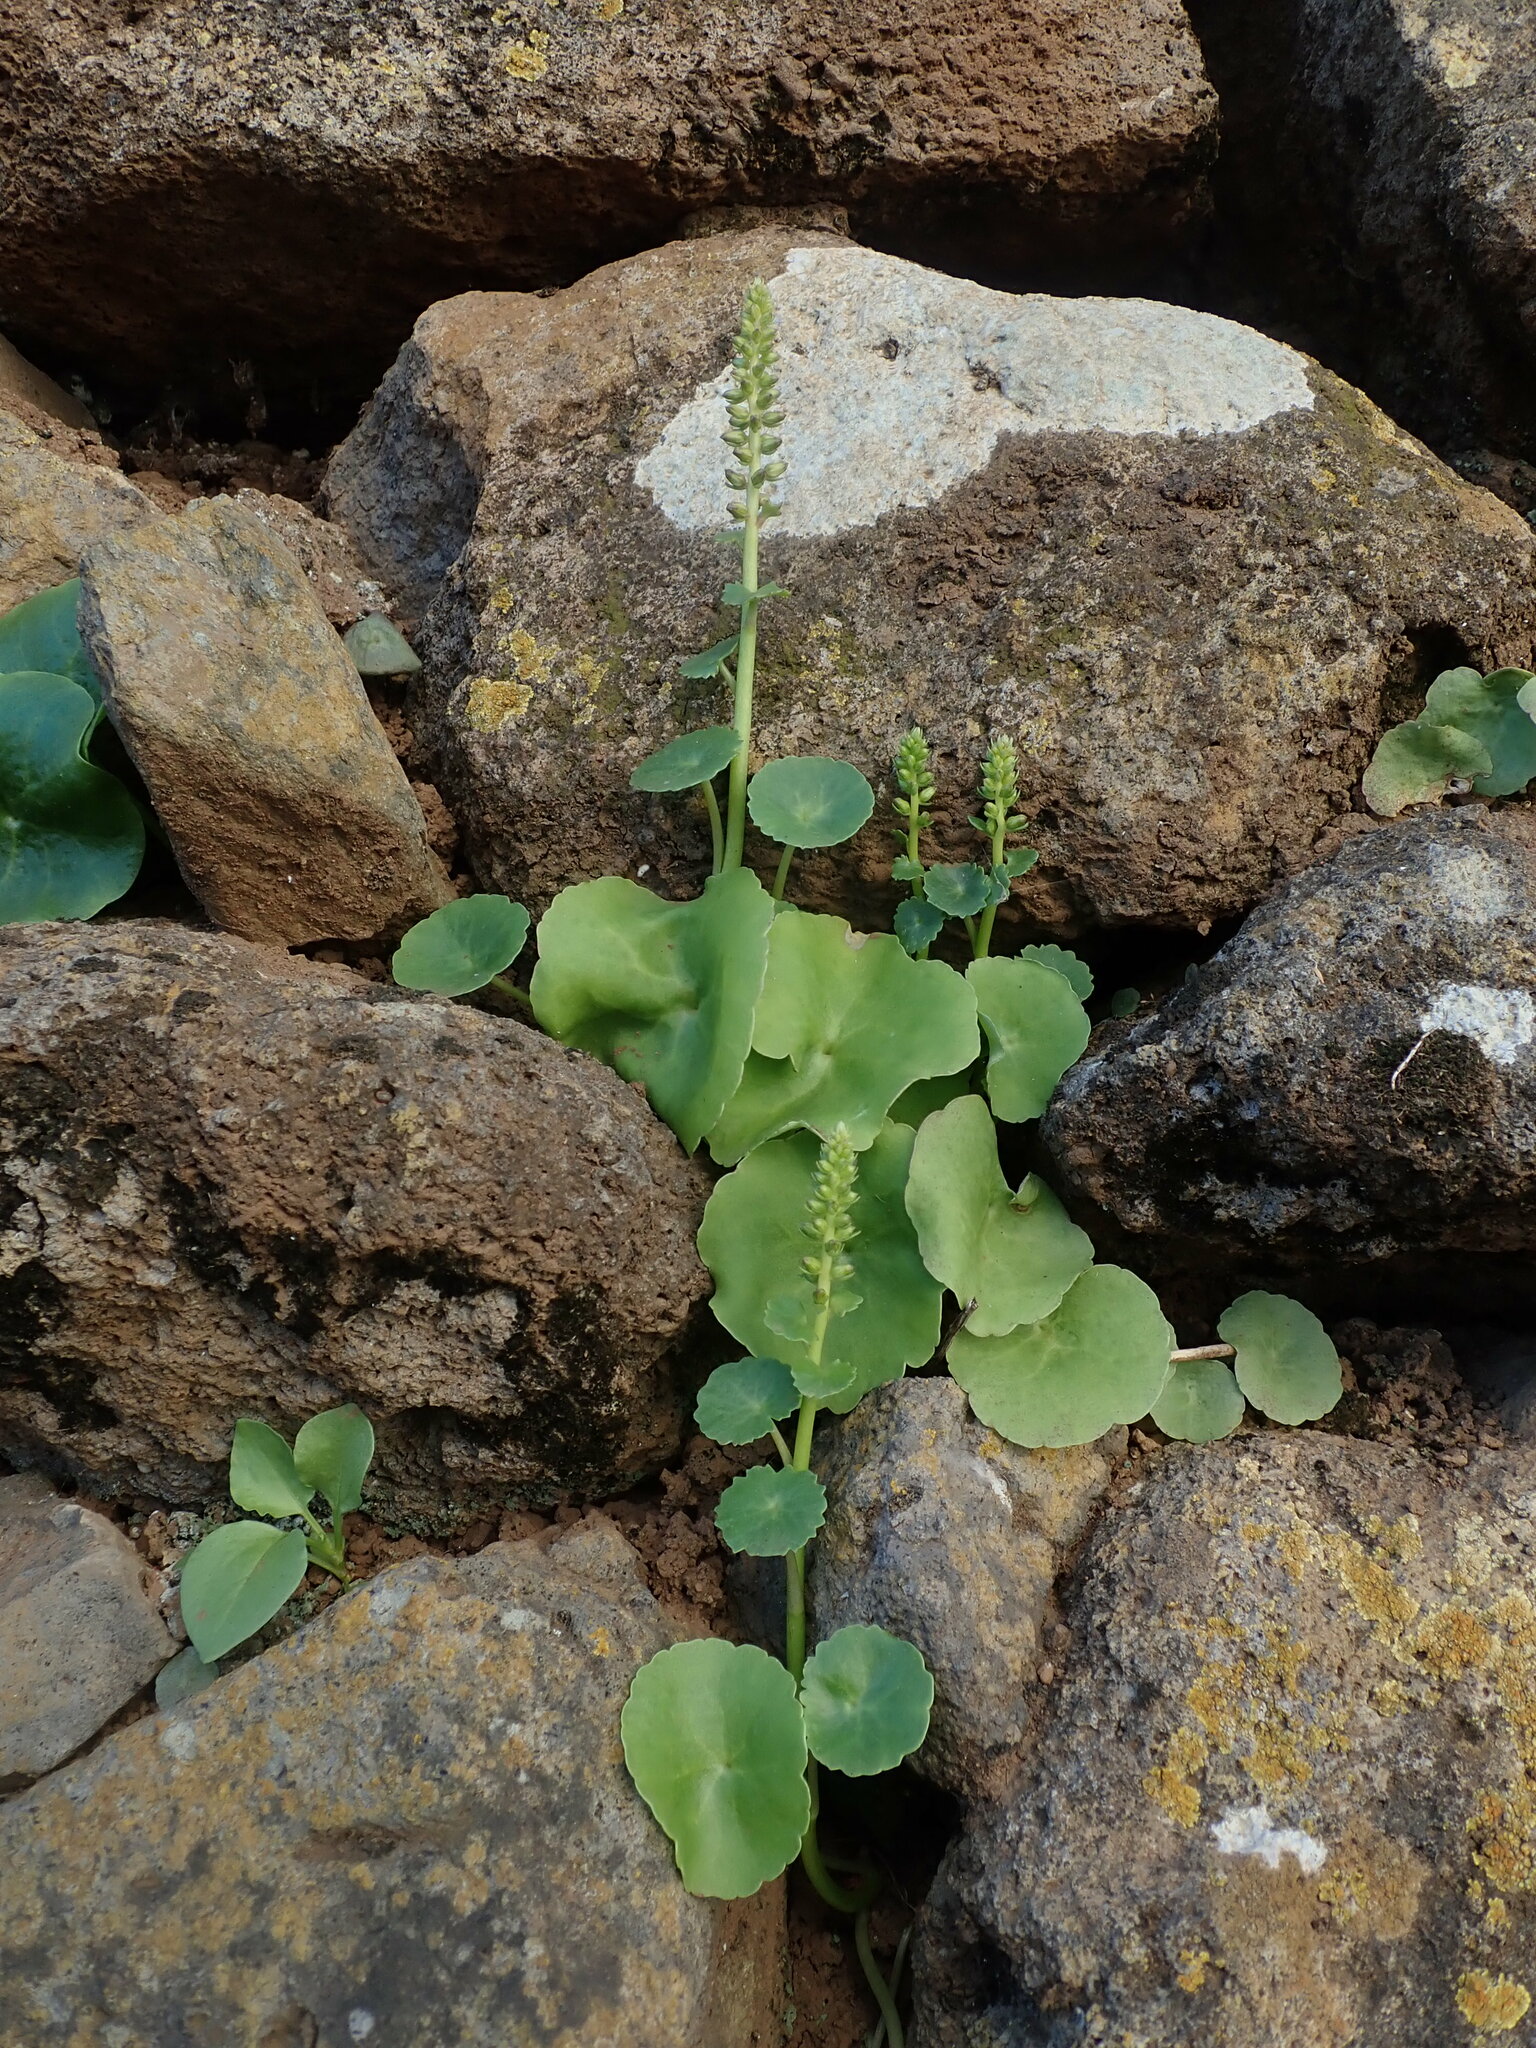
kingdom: Plantae
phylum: Tracheophyta
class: Magnoliopsida
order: Saxifragales
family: Crassulaceae
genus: Umbilicus
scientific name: Umbilicus horizontalis
